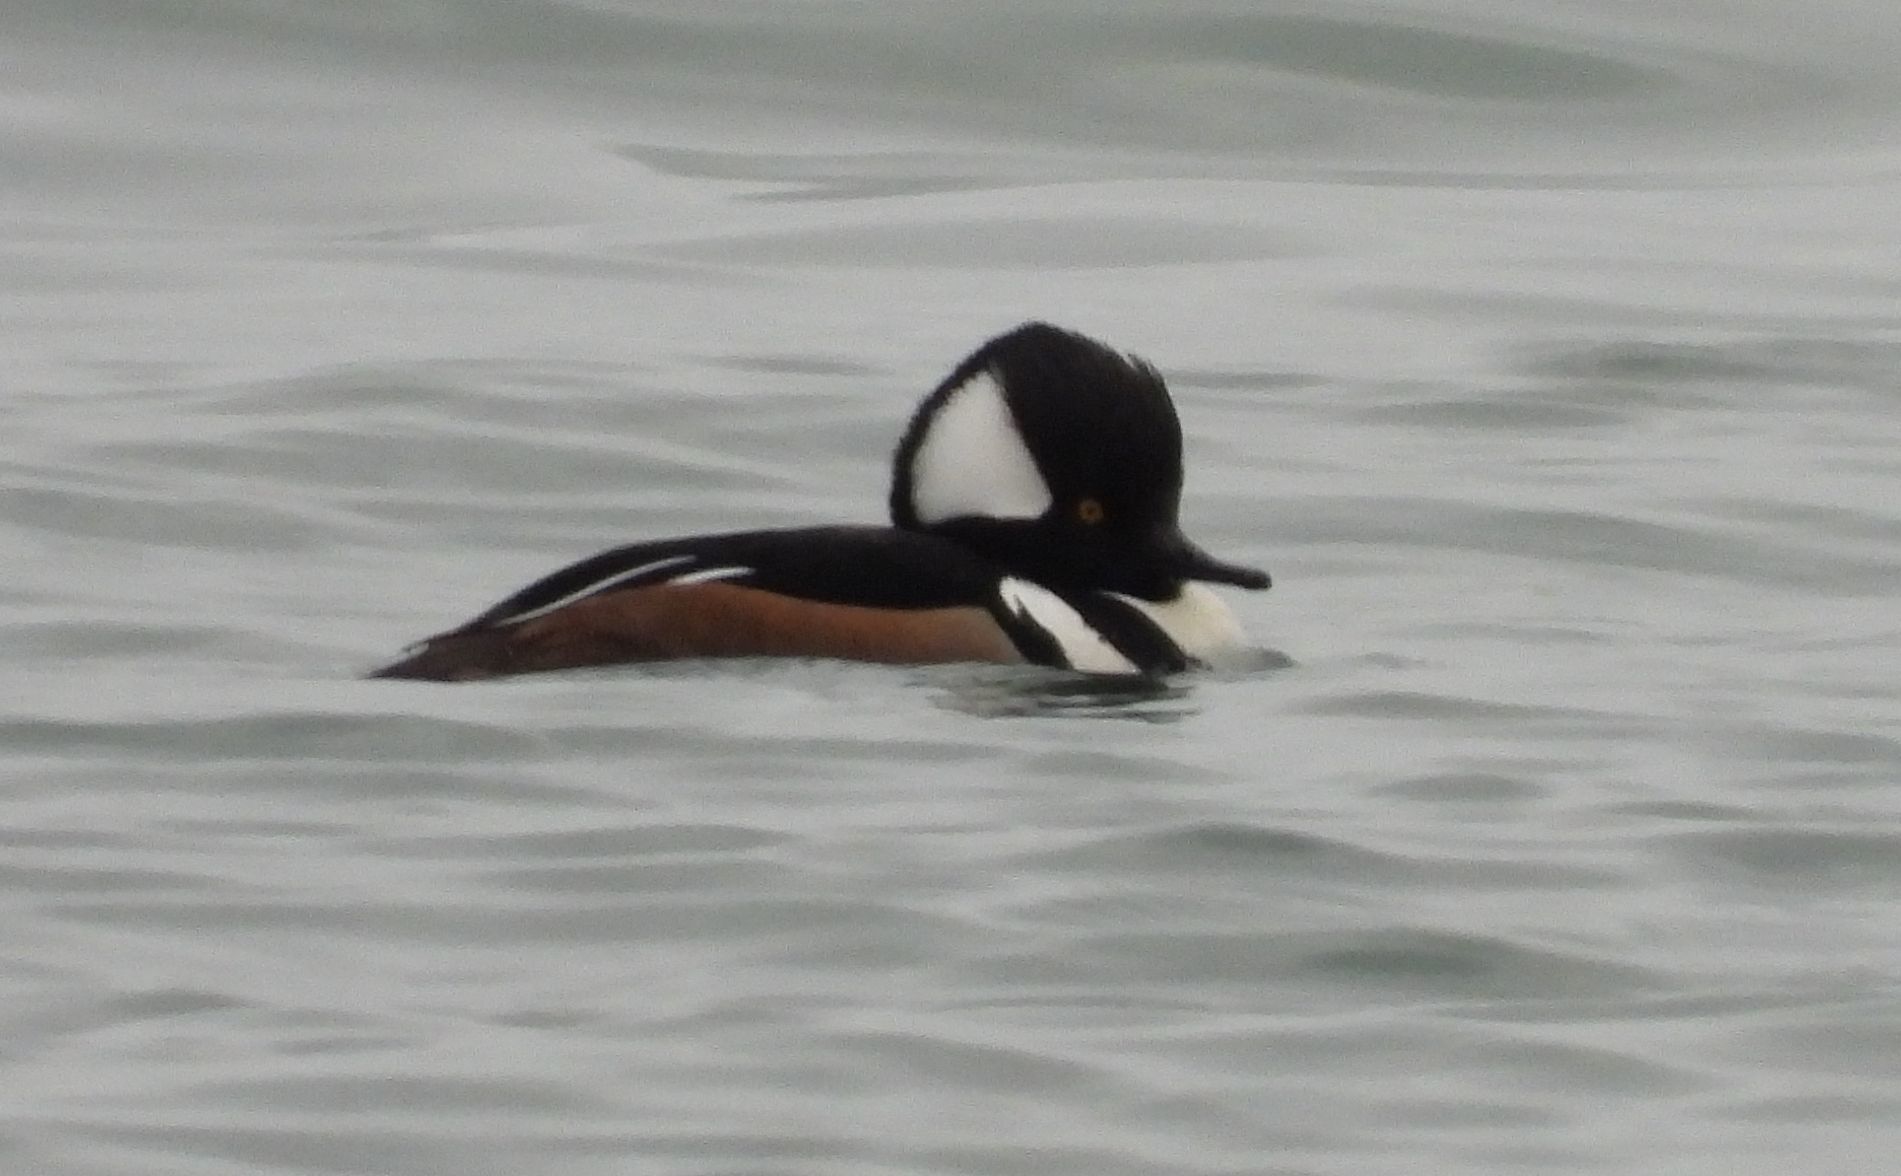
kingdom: Animalia
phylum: Chordata
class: Aves
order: Anseriformes
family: Anatidae
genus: Lophodytes
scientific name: Lophodytes cucullatus
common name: Hooded merganser
